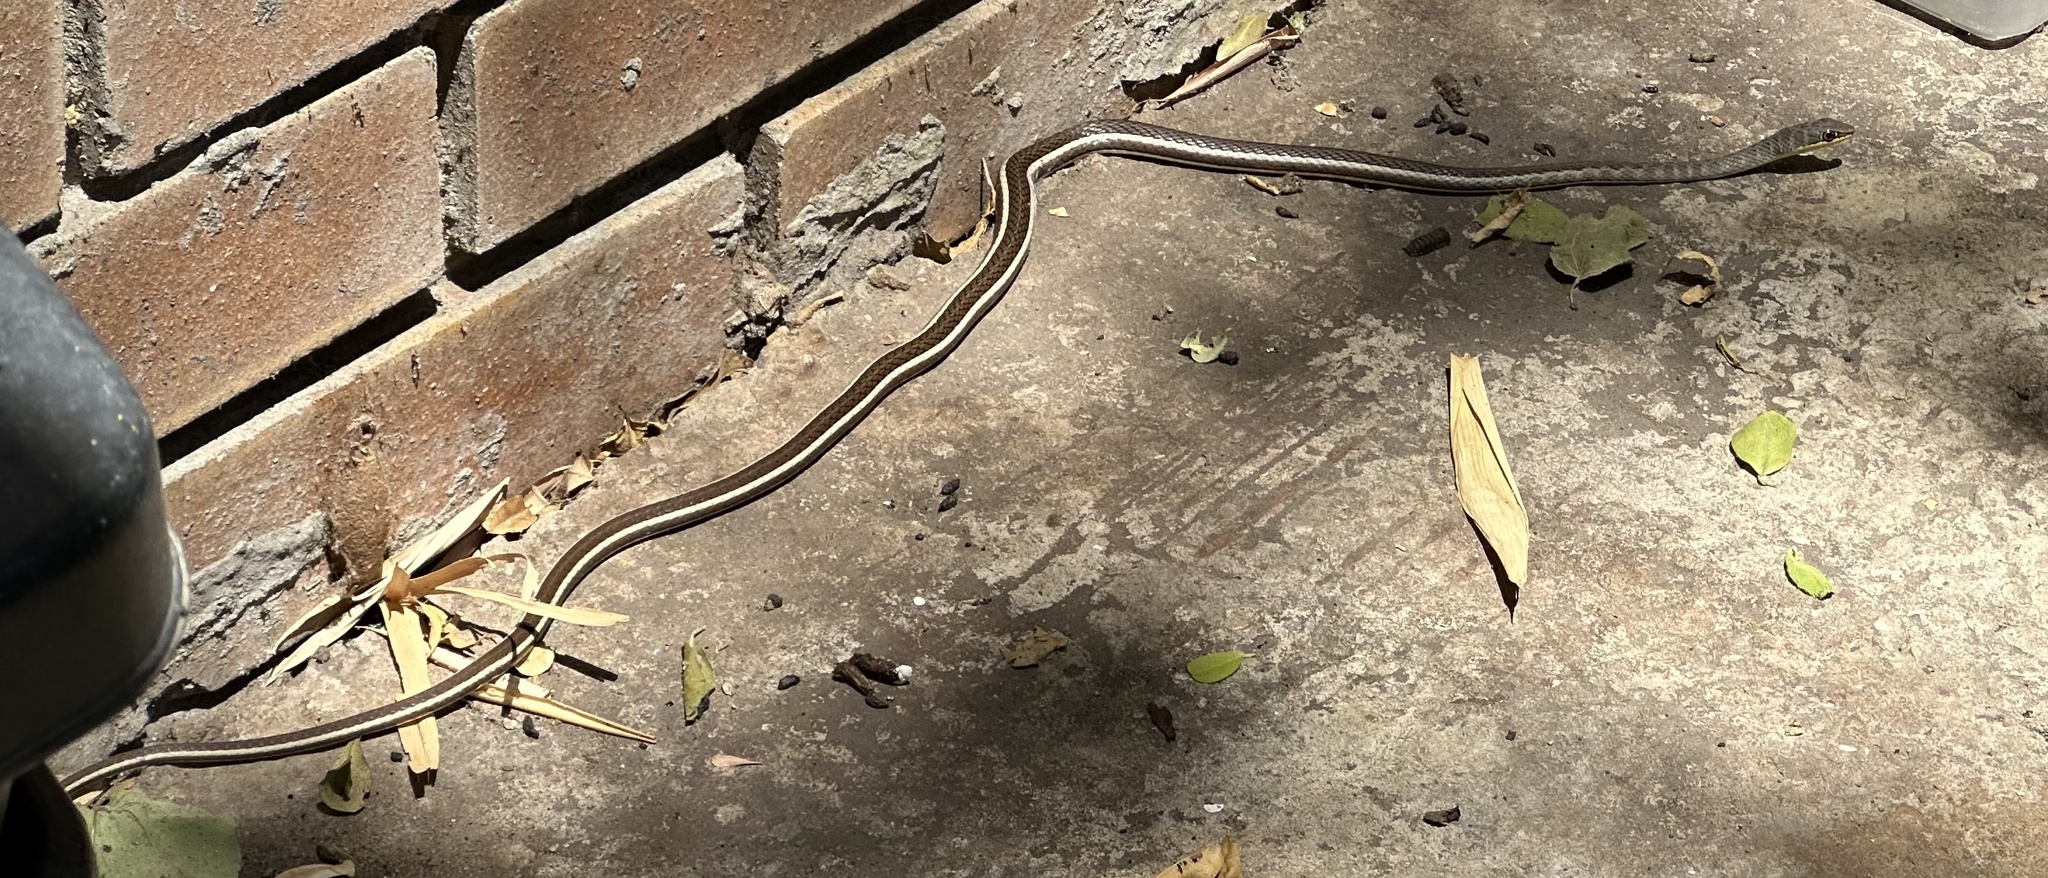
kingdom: Animalia
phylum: Chordata
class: Squamata
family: Psammophiidae
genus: Psammophis
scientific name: Psammophis subtaeniatus
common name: Stripe-bellied sand snake
